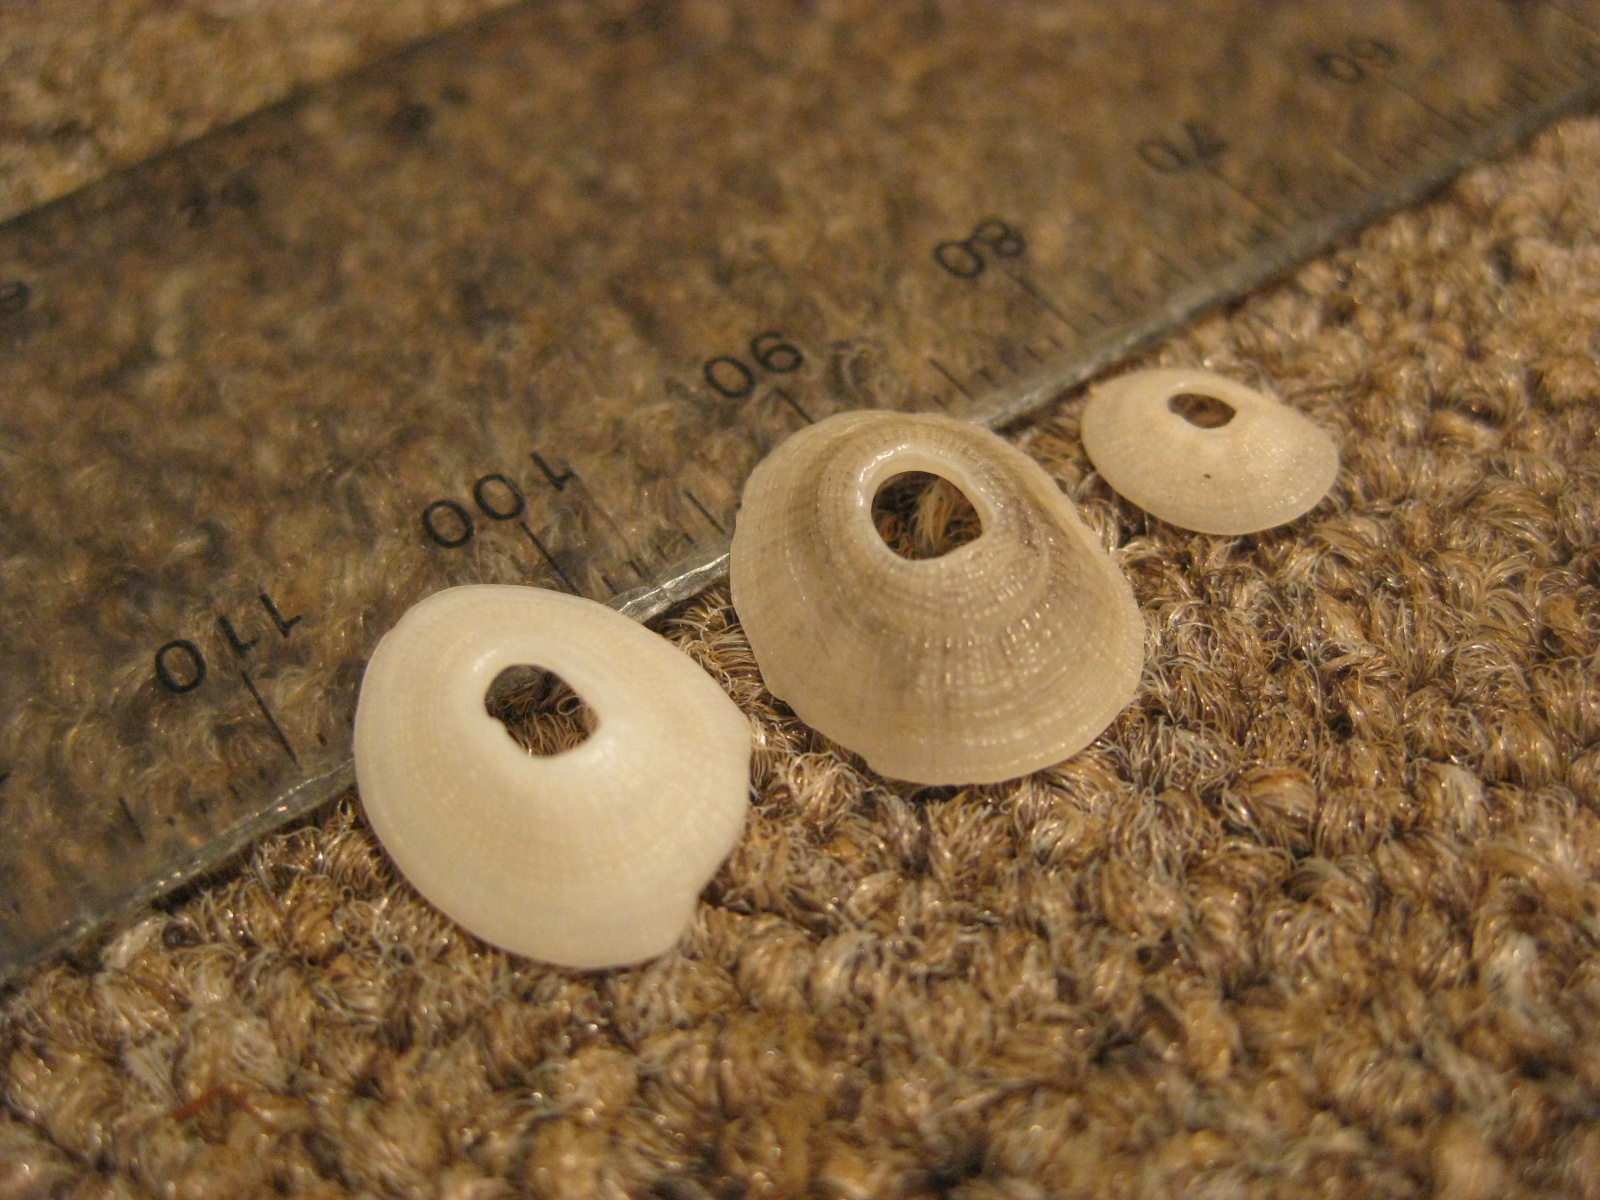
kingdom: Animalia
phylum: Mollusca
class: Gastropoda
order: Lepetellida
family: Fissurellidae
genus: Monodilepas
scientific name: Monodilepas diemenensis
